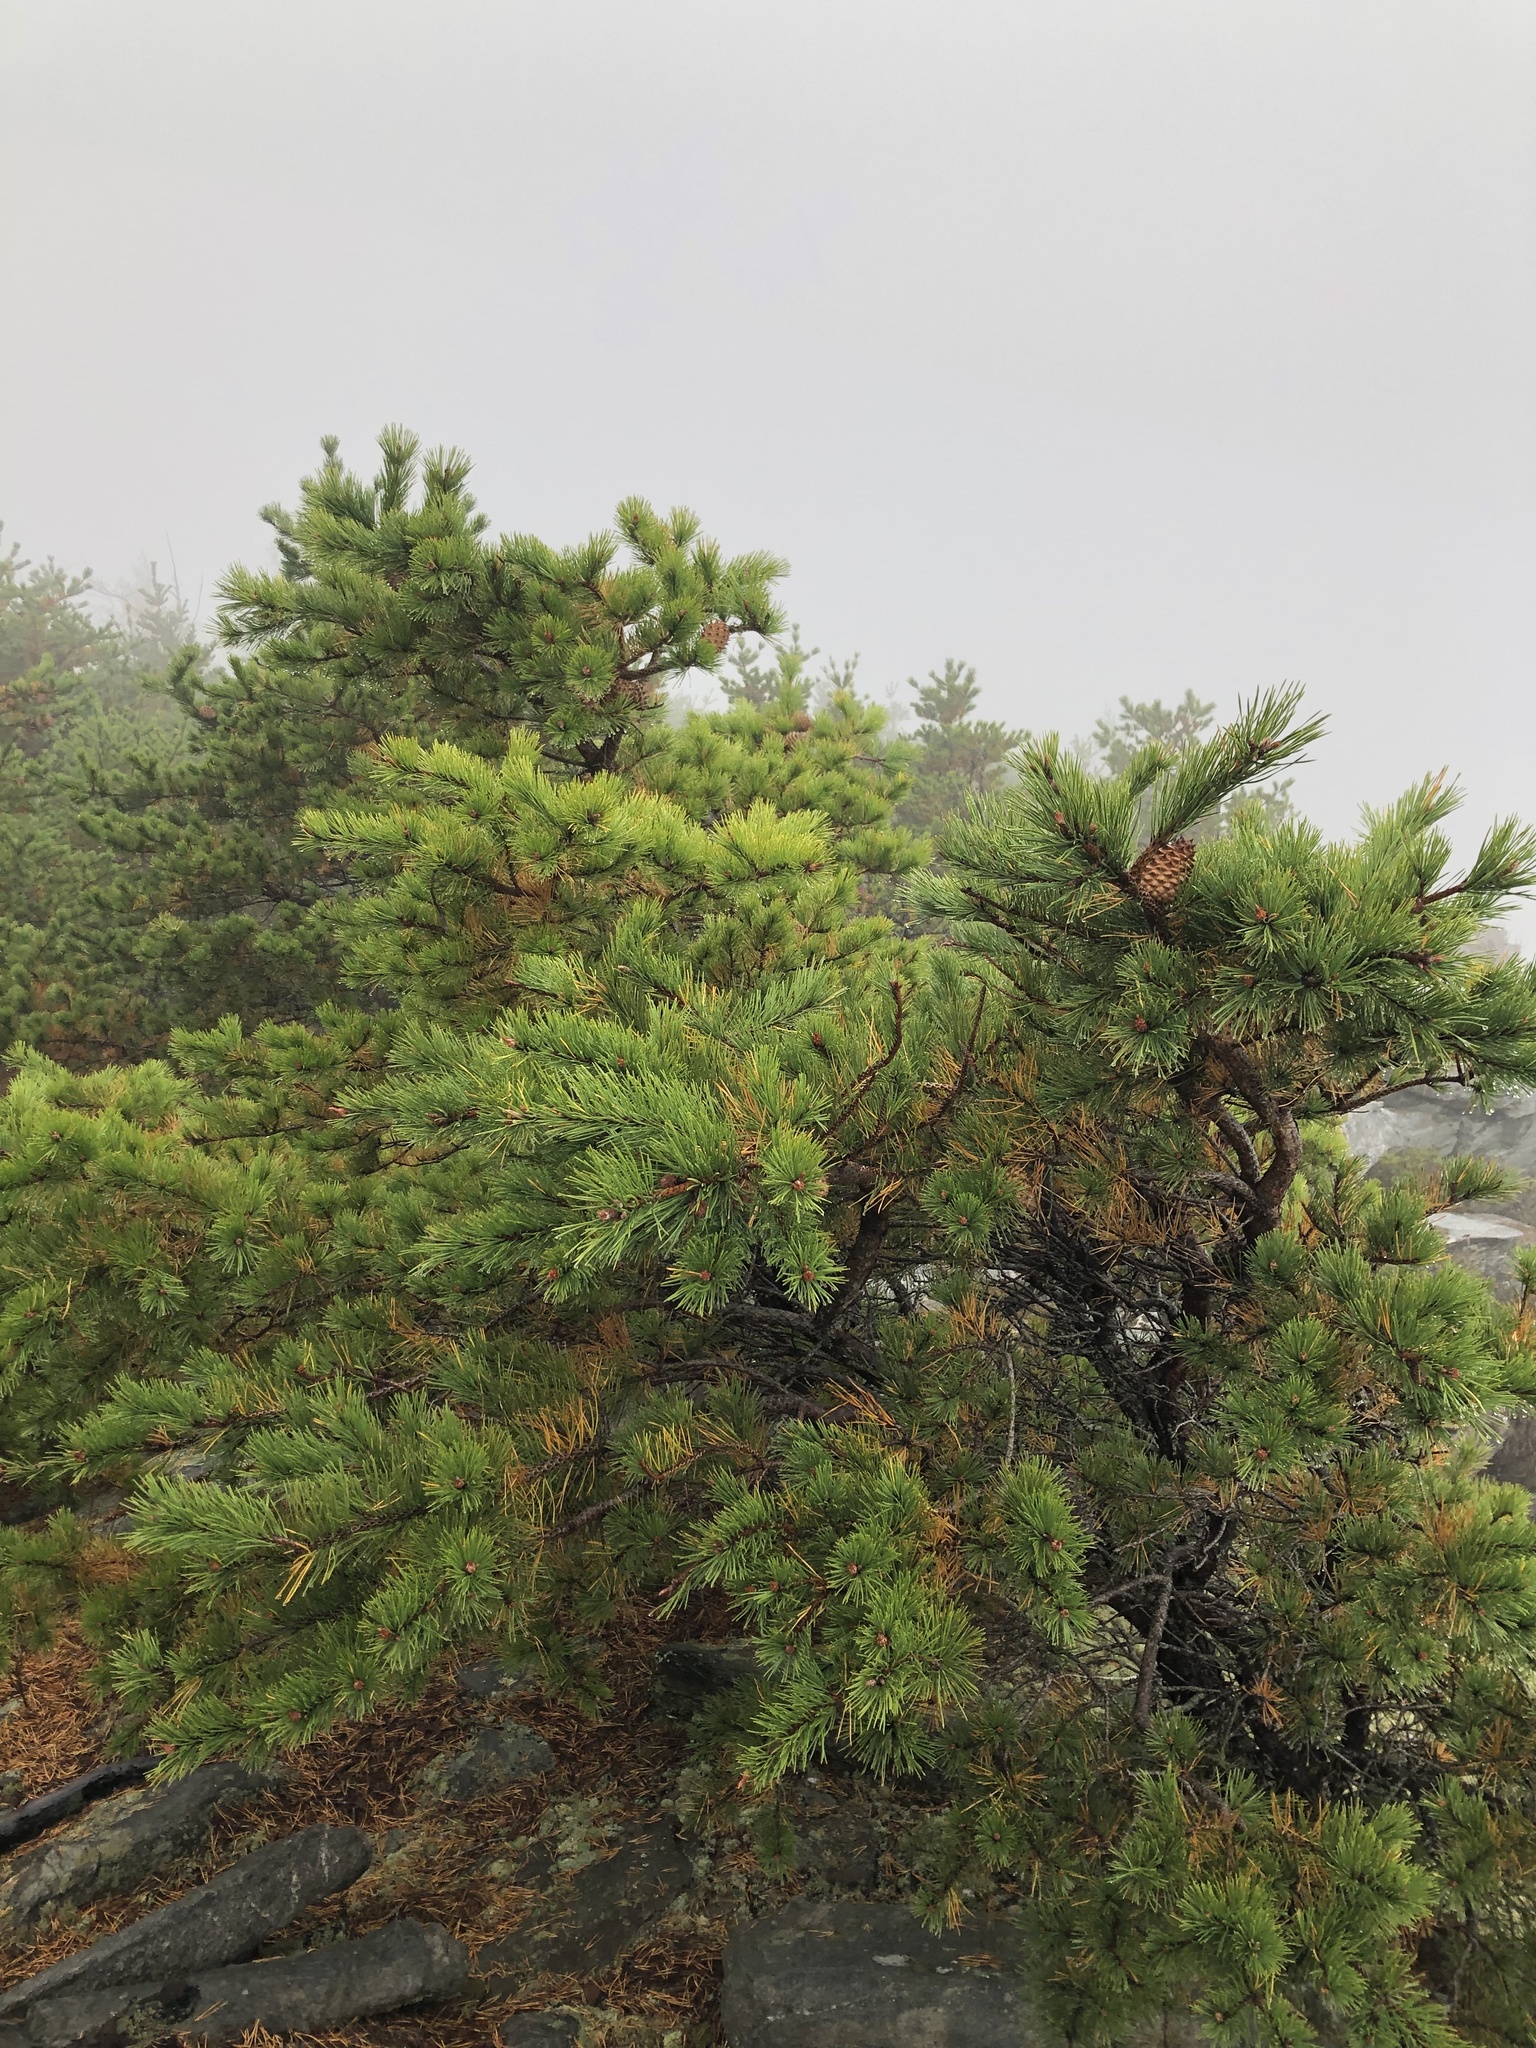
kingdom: Plantae
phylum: Tracheophyta
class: Pinopsida
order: Pinales
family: Pinaceae
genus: Pinus
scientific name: Pinus pungens
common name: Hickory pine
